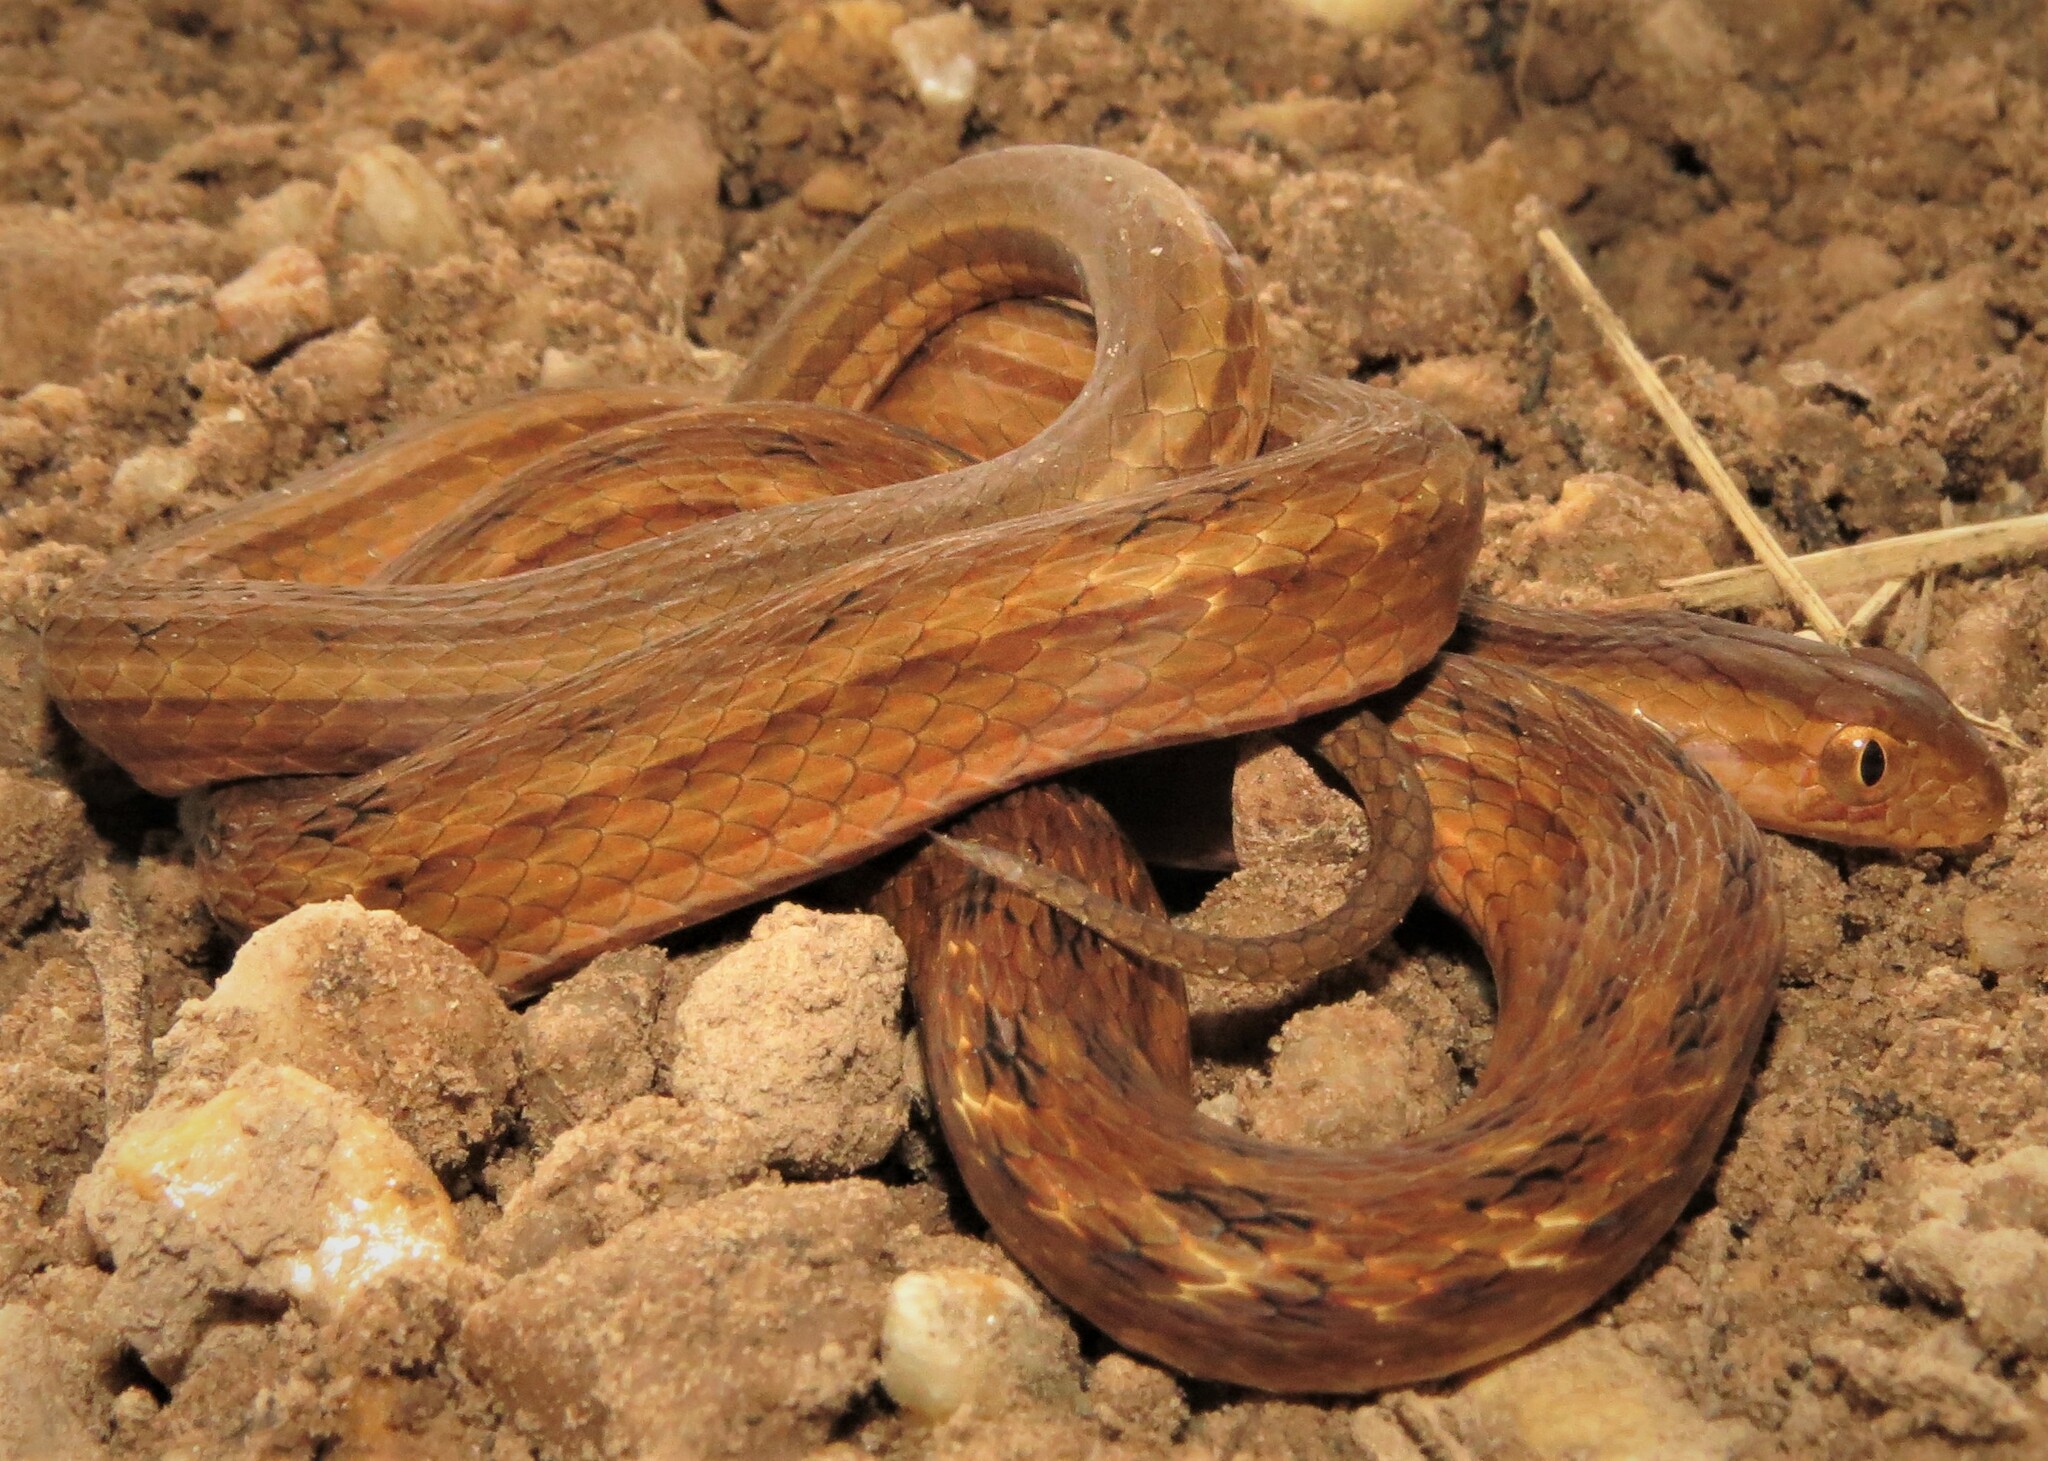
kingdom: Animalia
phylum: Chordata
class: Squamata
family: Colubridae
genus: Dryophylax
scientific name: Dryophylax
